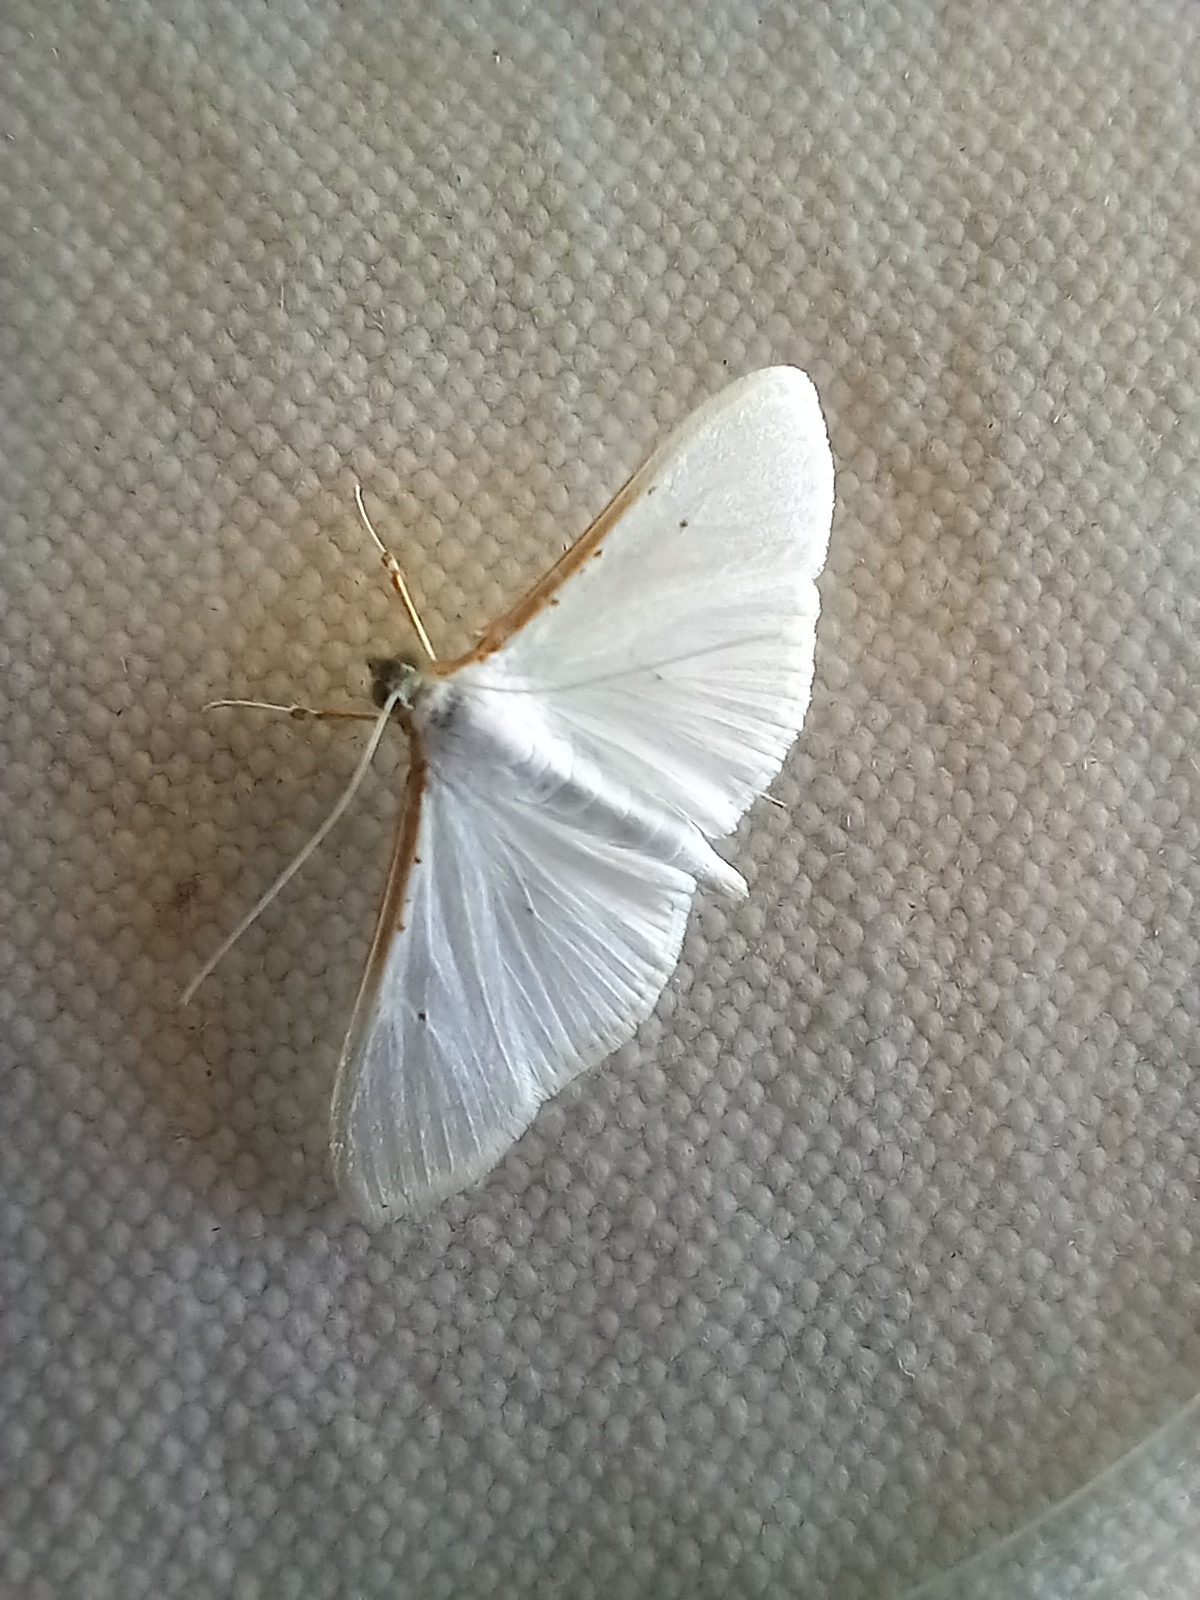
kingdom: Animalia
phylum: Arthropoda
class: Insecta
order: Lepidoptera
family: Crambidae
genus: Palpita
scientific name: Palpita vitrealis
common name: Olive-tree pearl
